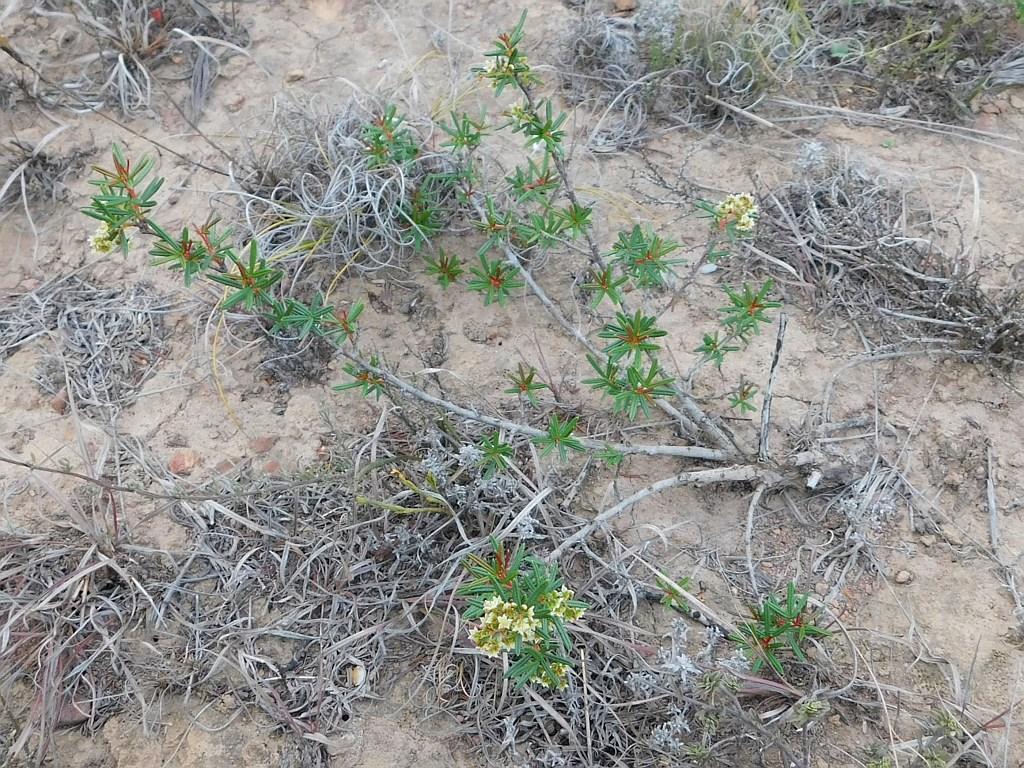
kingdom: Plantae
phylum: Tracheophyta
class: Magnoliopsida
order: Sapindales
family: Anacardiaceae
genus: Searsia
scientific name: Searsia rosmarinifolia
